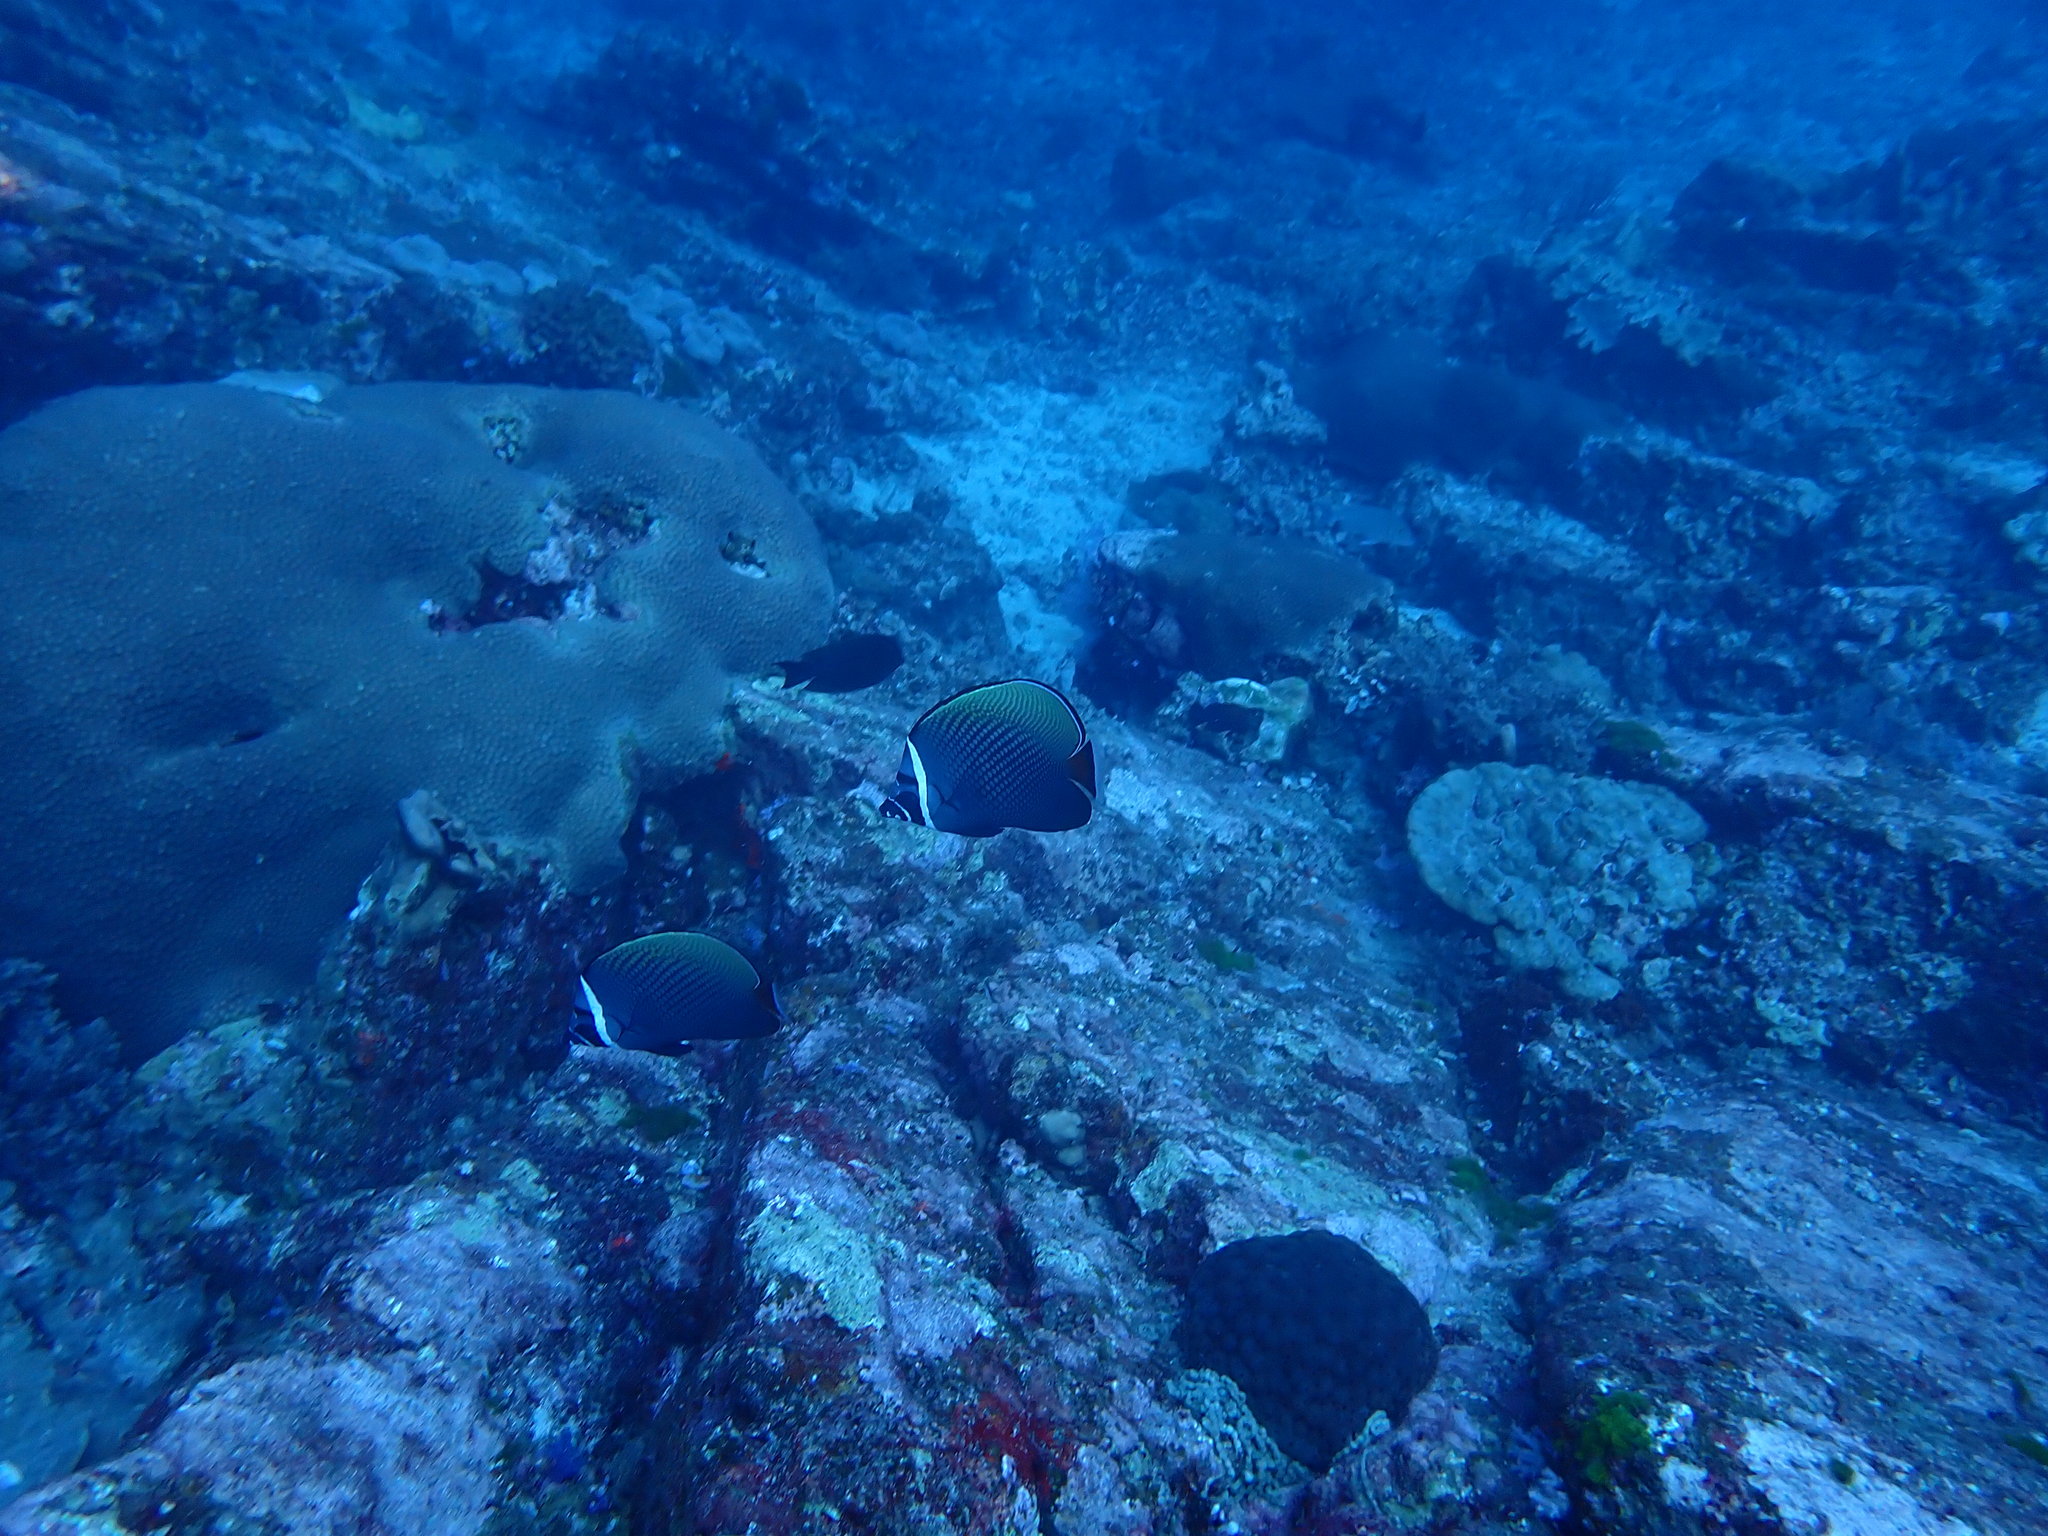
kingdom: Animalia
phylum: Chordata
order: Perciformes
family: Chaetodontidae
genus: Chaetodon
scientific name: Chaetodon collare
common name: Redtail butterflyfish
